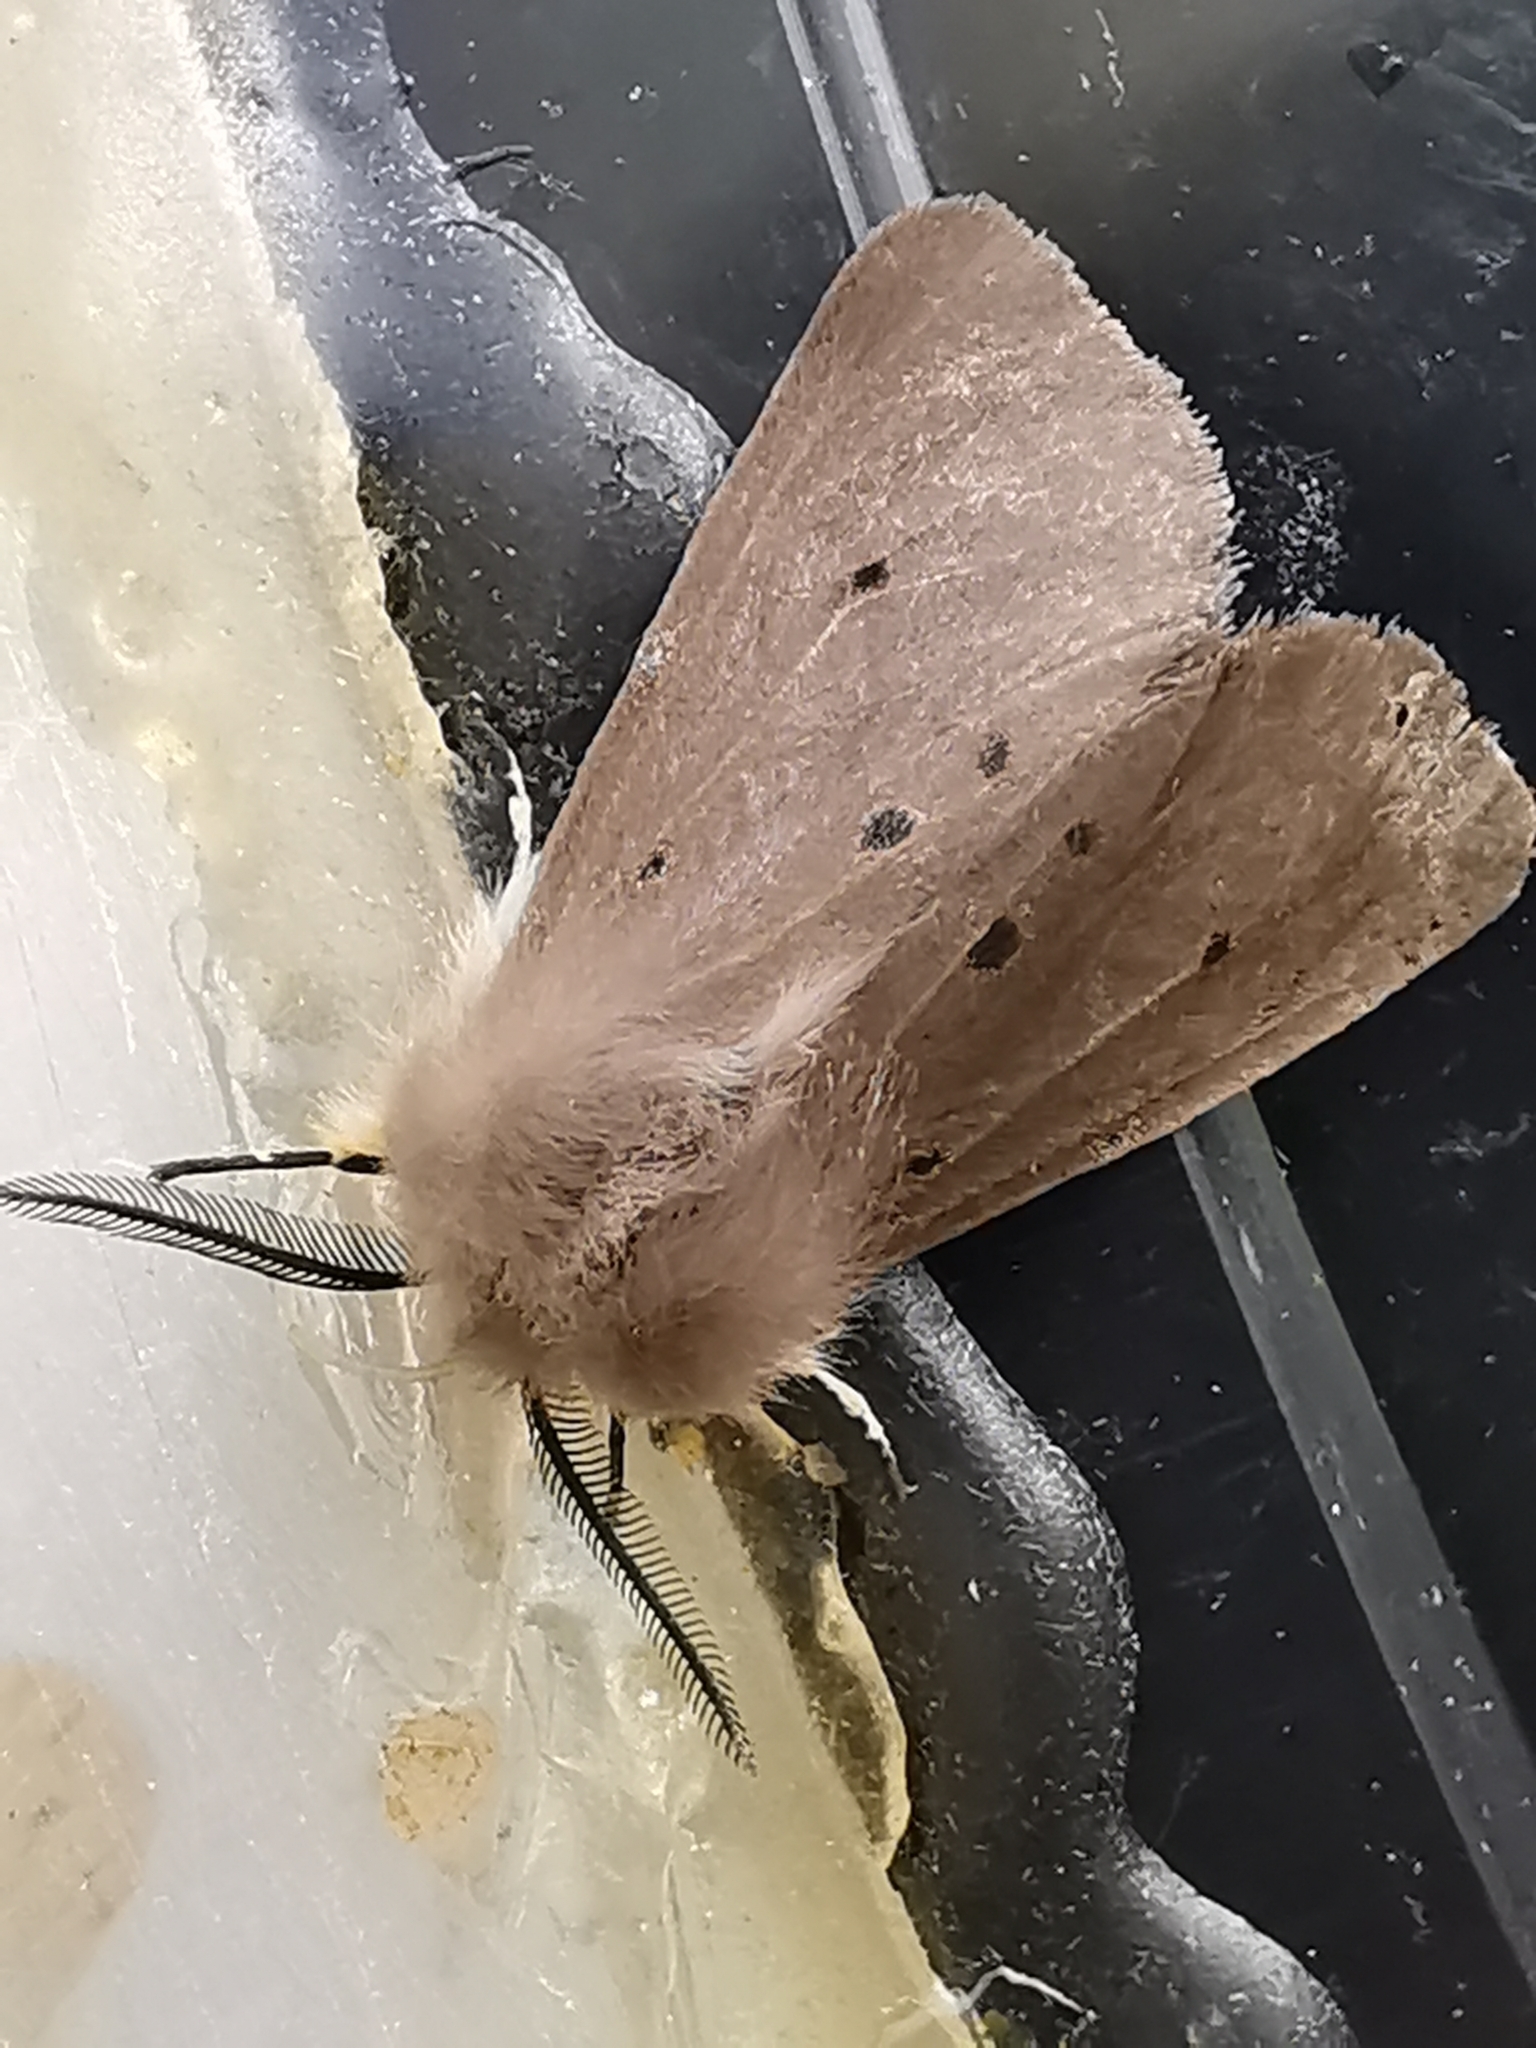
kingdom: Animalia
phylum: Arthropoda
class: Insecta
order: Lepidoptera
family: Erebidae
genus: Diaphora
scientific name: Diaphora mendica
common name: Muslin moth
